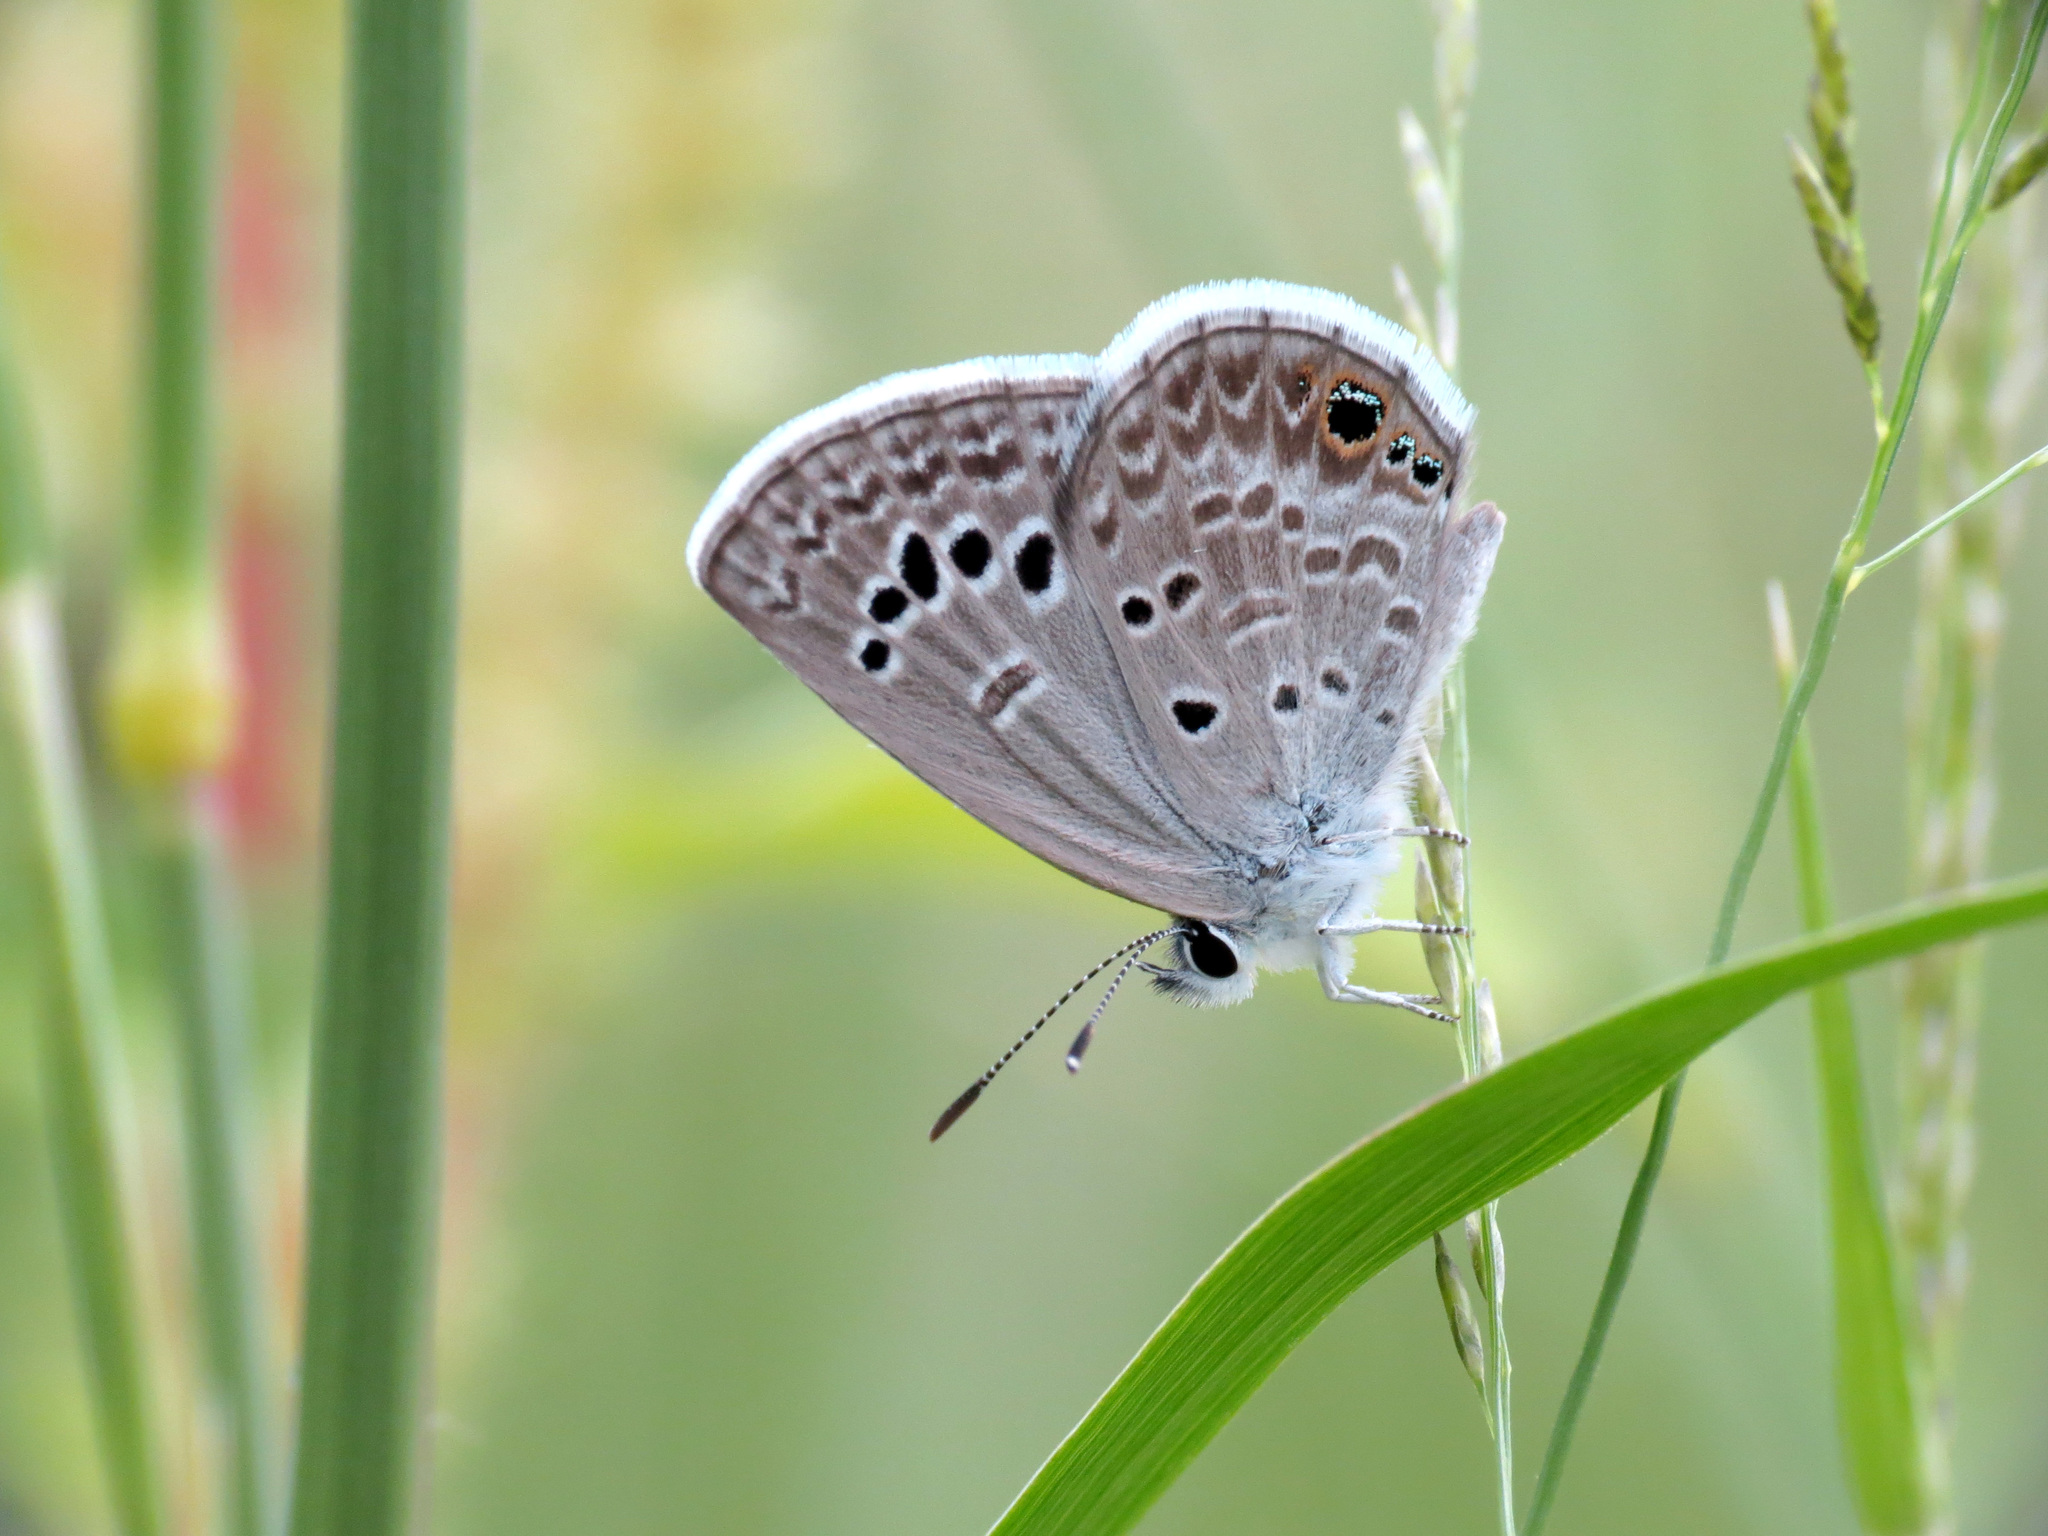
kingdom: Animalia
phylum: Arthropoda
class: Insecta
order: Lepidoptera
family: Lycaenidae
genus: Echinargus
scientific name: Echinargus isola
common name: Reakirt's blue
